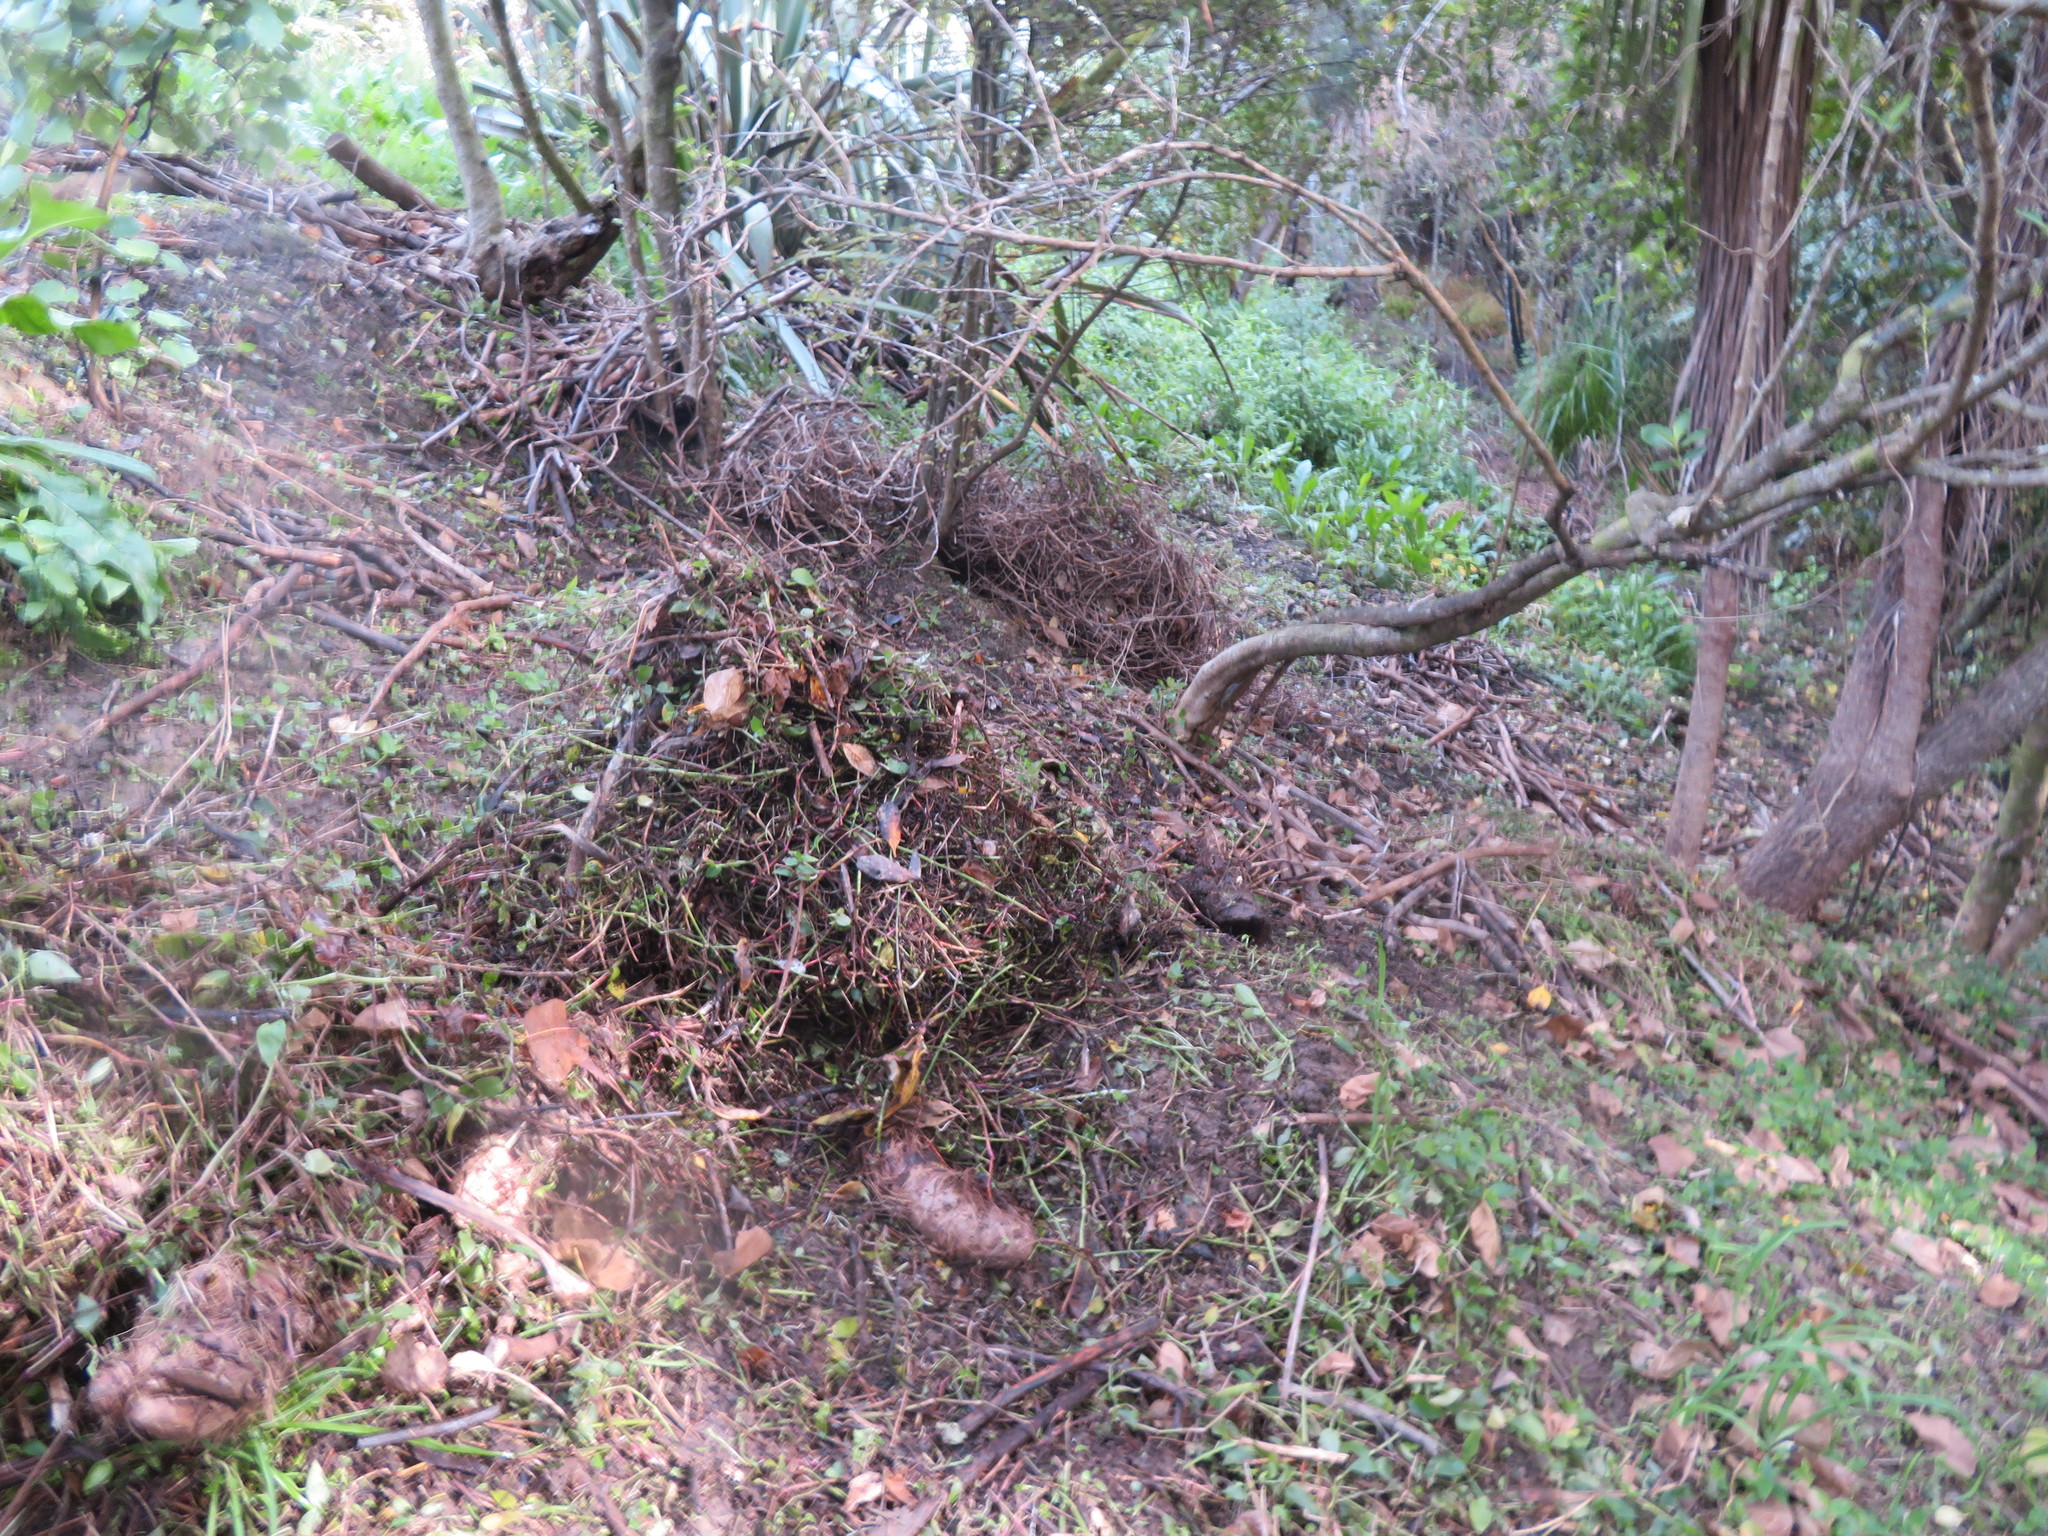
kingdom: Plantae
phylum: Tracheophyta
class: Liliopsida
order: Commelinales
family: Commelinaceae
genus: Tradescantia
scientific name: Tradescantia fluminensis
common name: Wandering-jew
